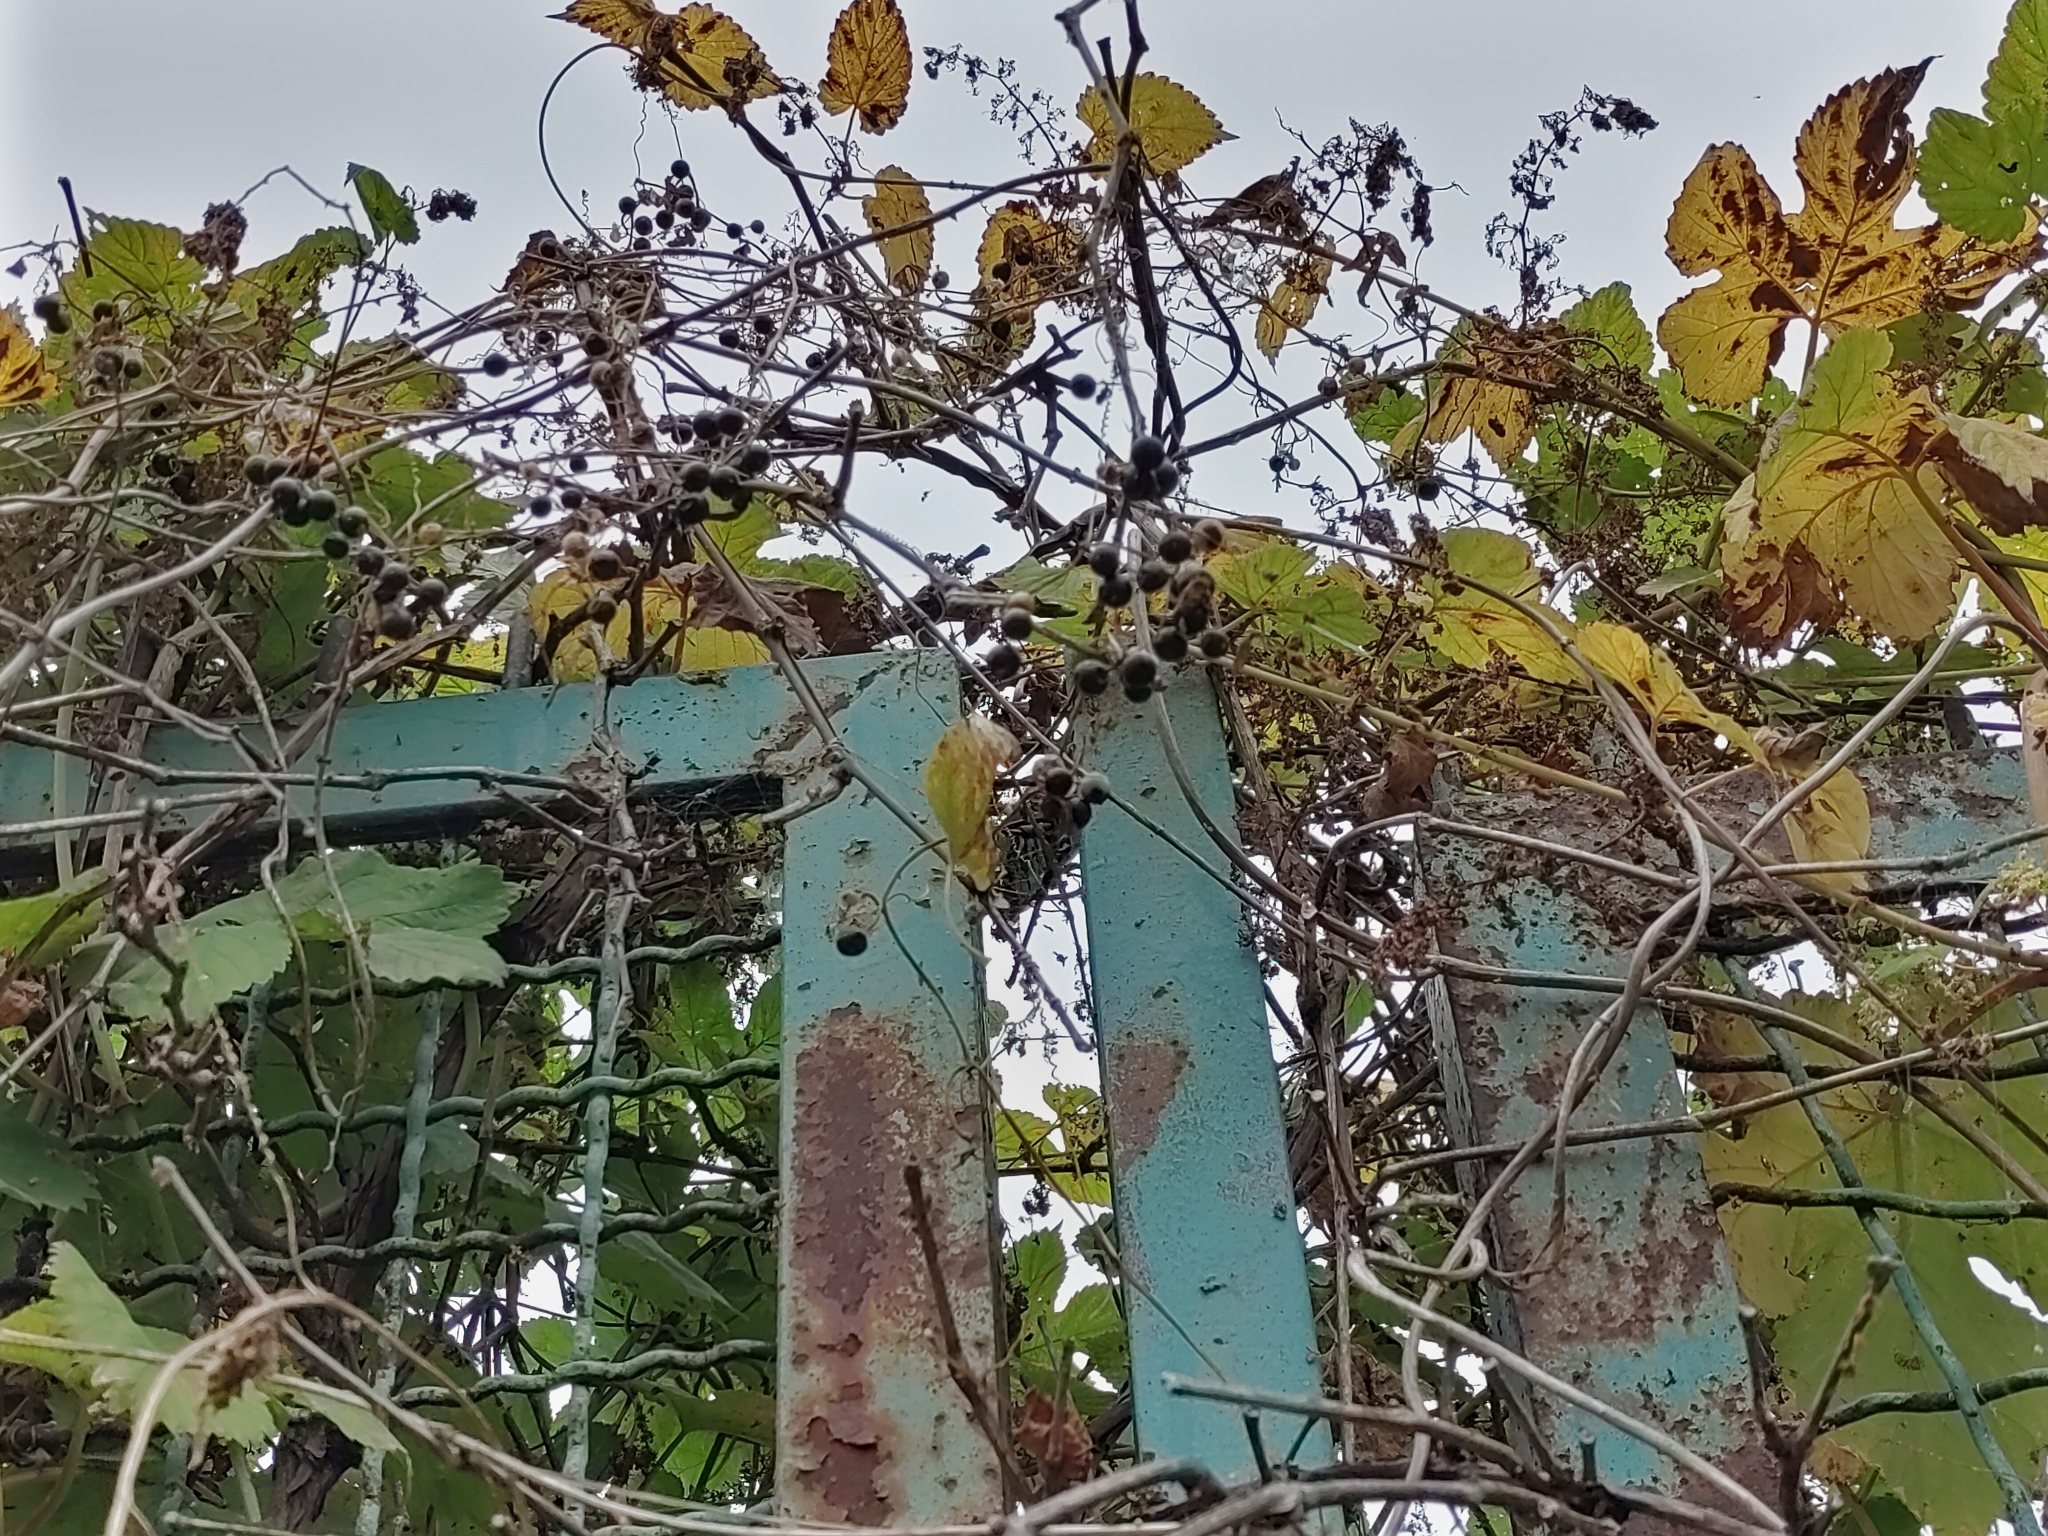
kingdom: Plantae
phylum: Tracheophyta
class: Magnoliopsida
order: Cucurbitales
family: Cucurbitaceae
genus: Bryonia
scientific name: Bryonia alba
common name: White bryony
